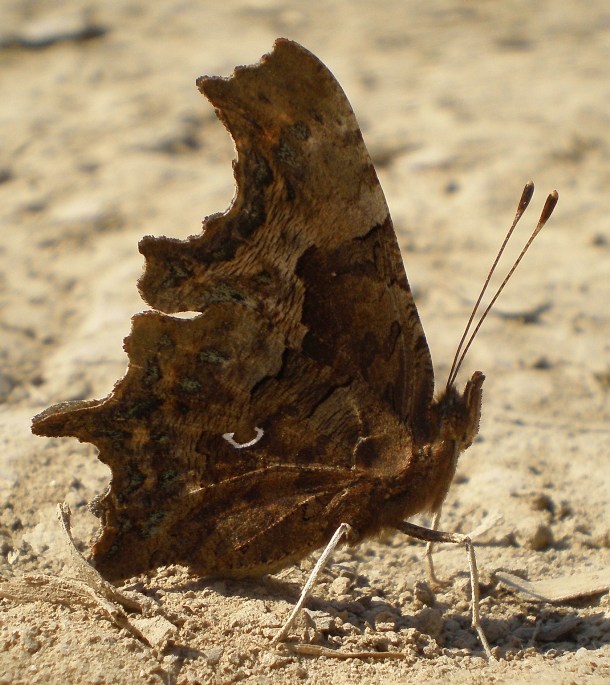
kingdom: Animalia
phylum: Arthropoda
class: Insecta
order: Lepidoptera
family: Nymphalidae
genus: Polygonia
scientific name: Polygonia c-album
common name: Comma
